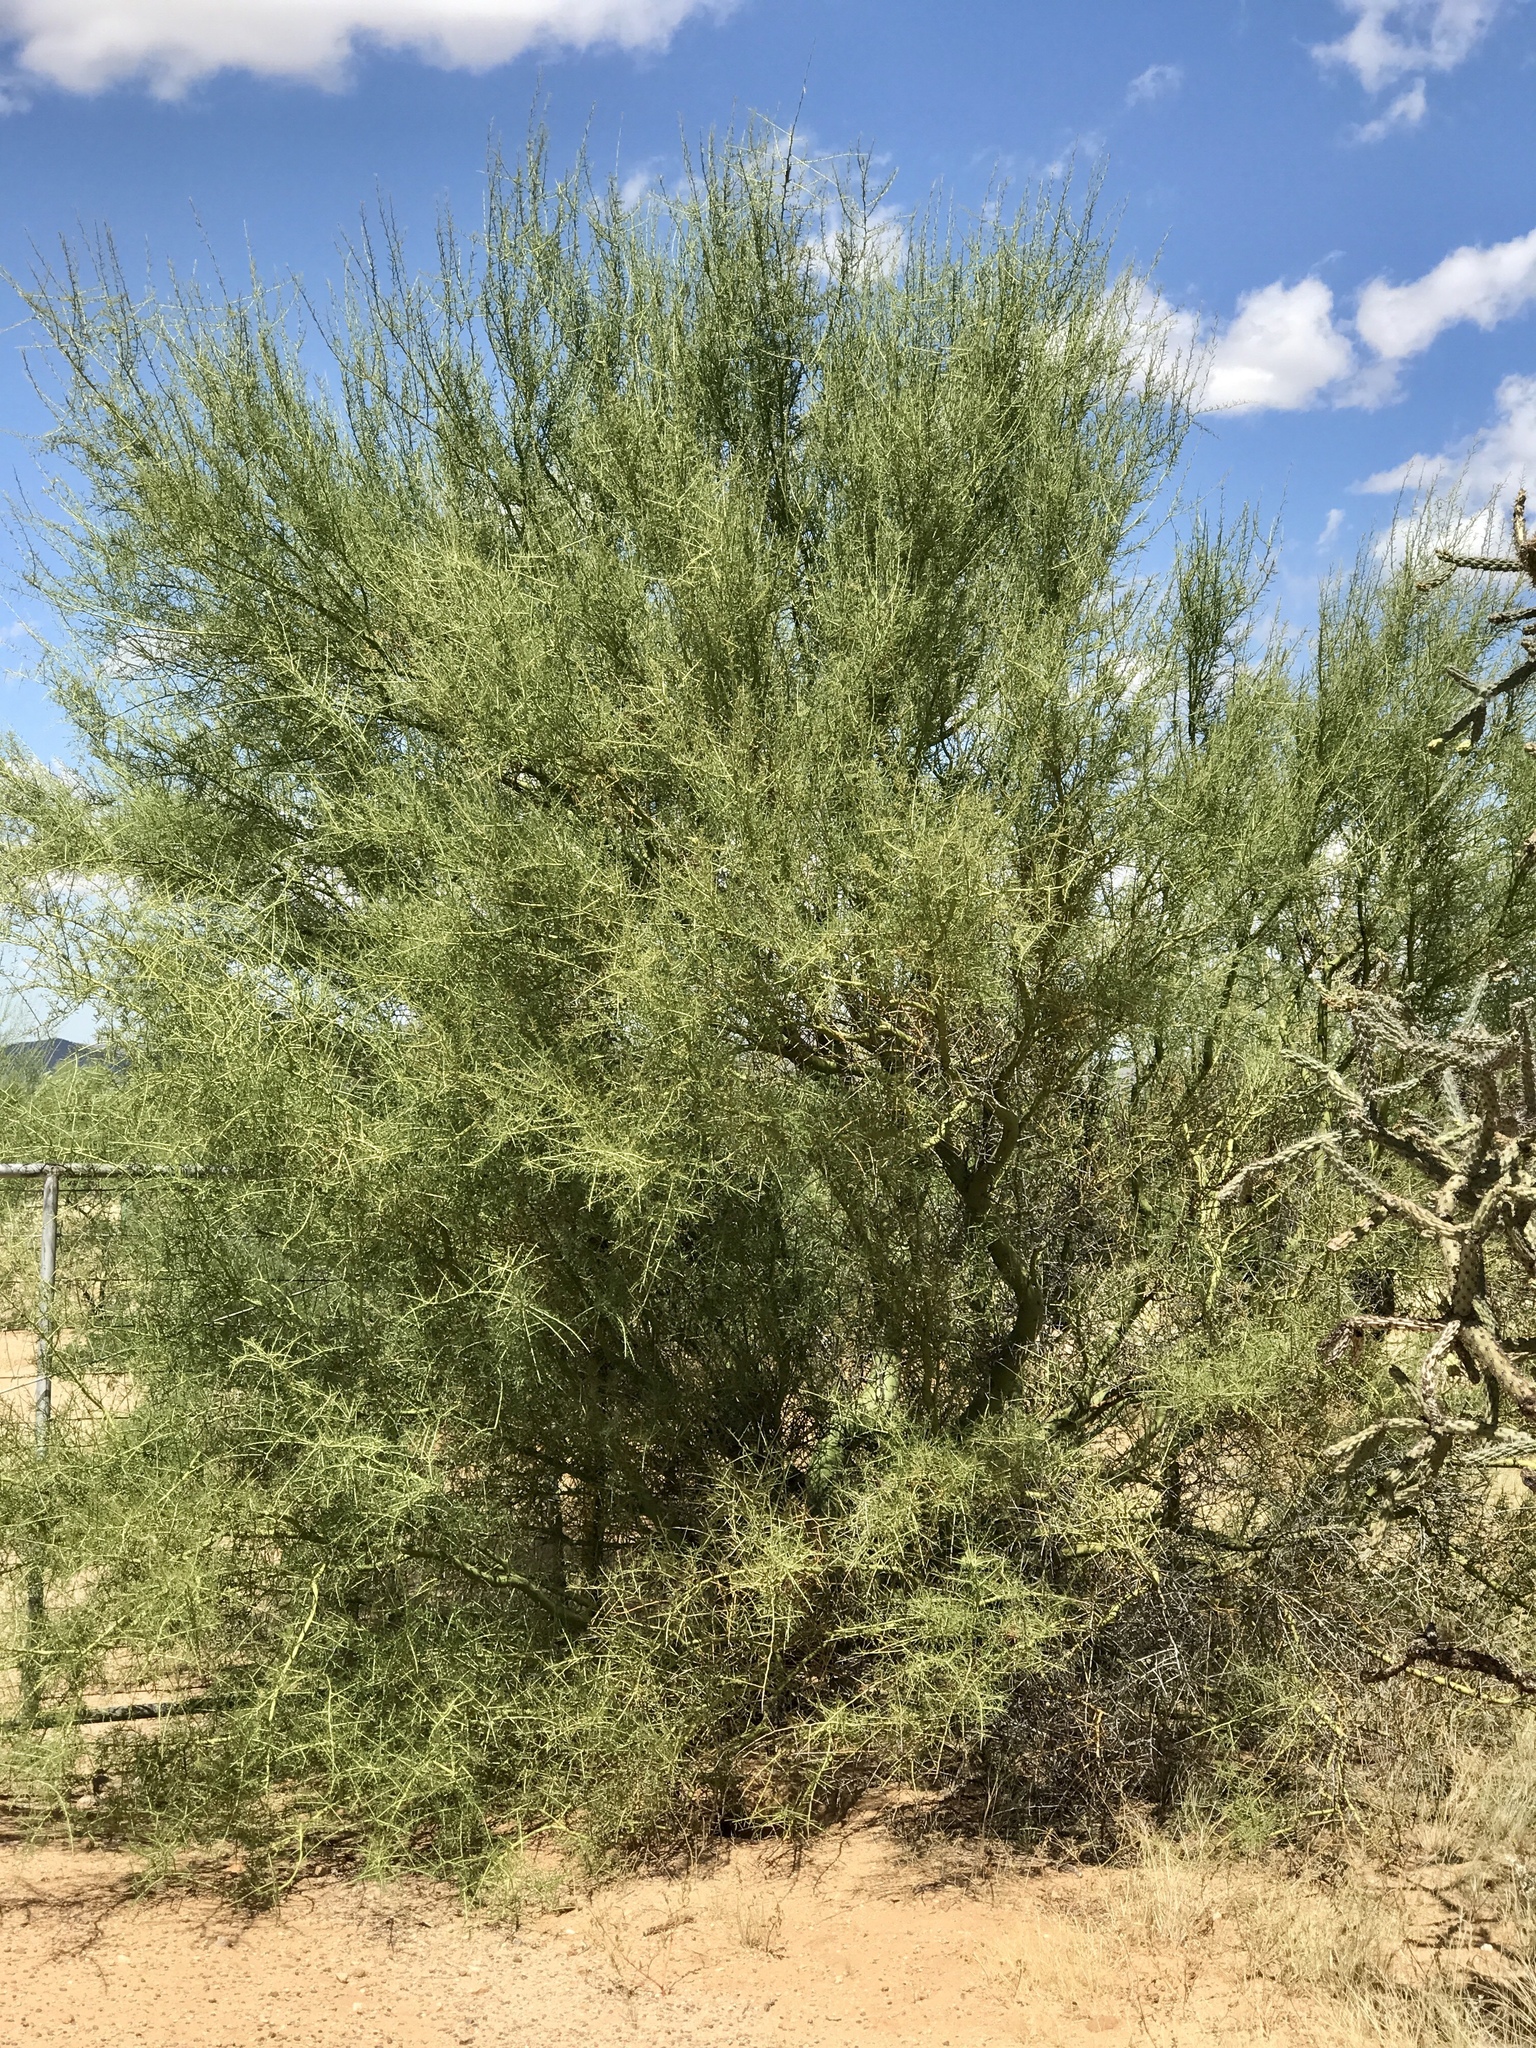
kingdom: Plantae
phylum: Tracheophyta
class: Magnoliopsida
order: Fabales
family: Fabaceae
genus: Parkinsonia
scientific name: Parkinsonia florida
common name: Blue paloverde
